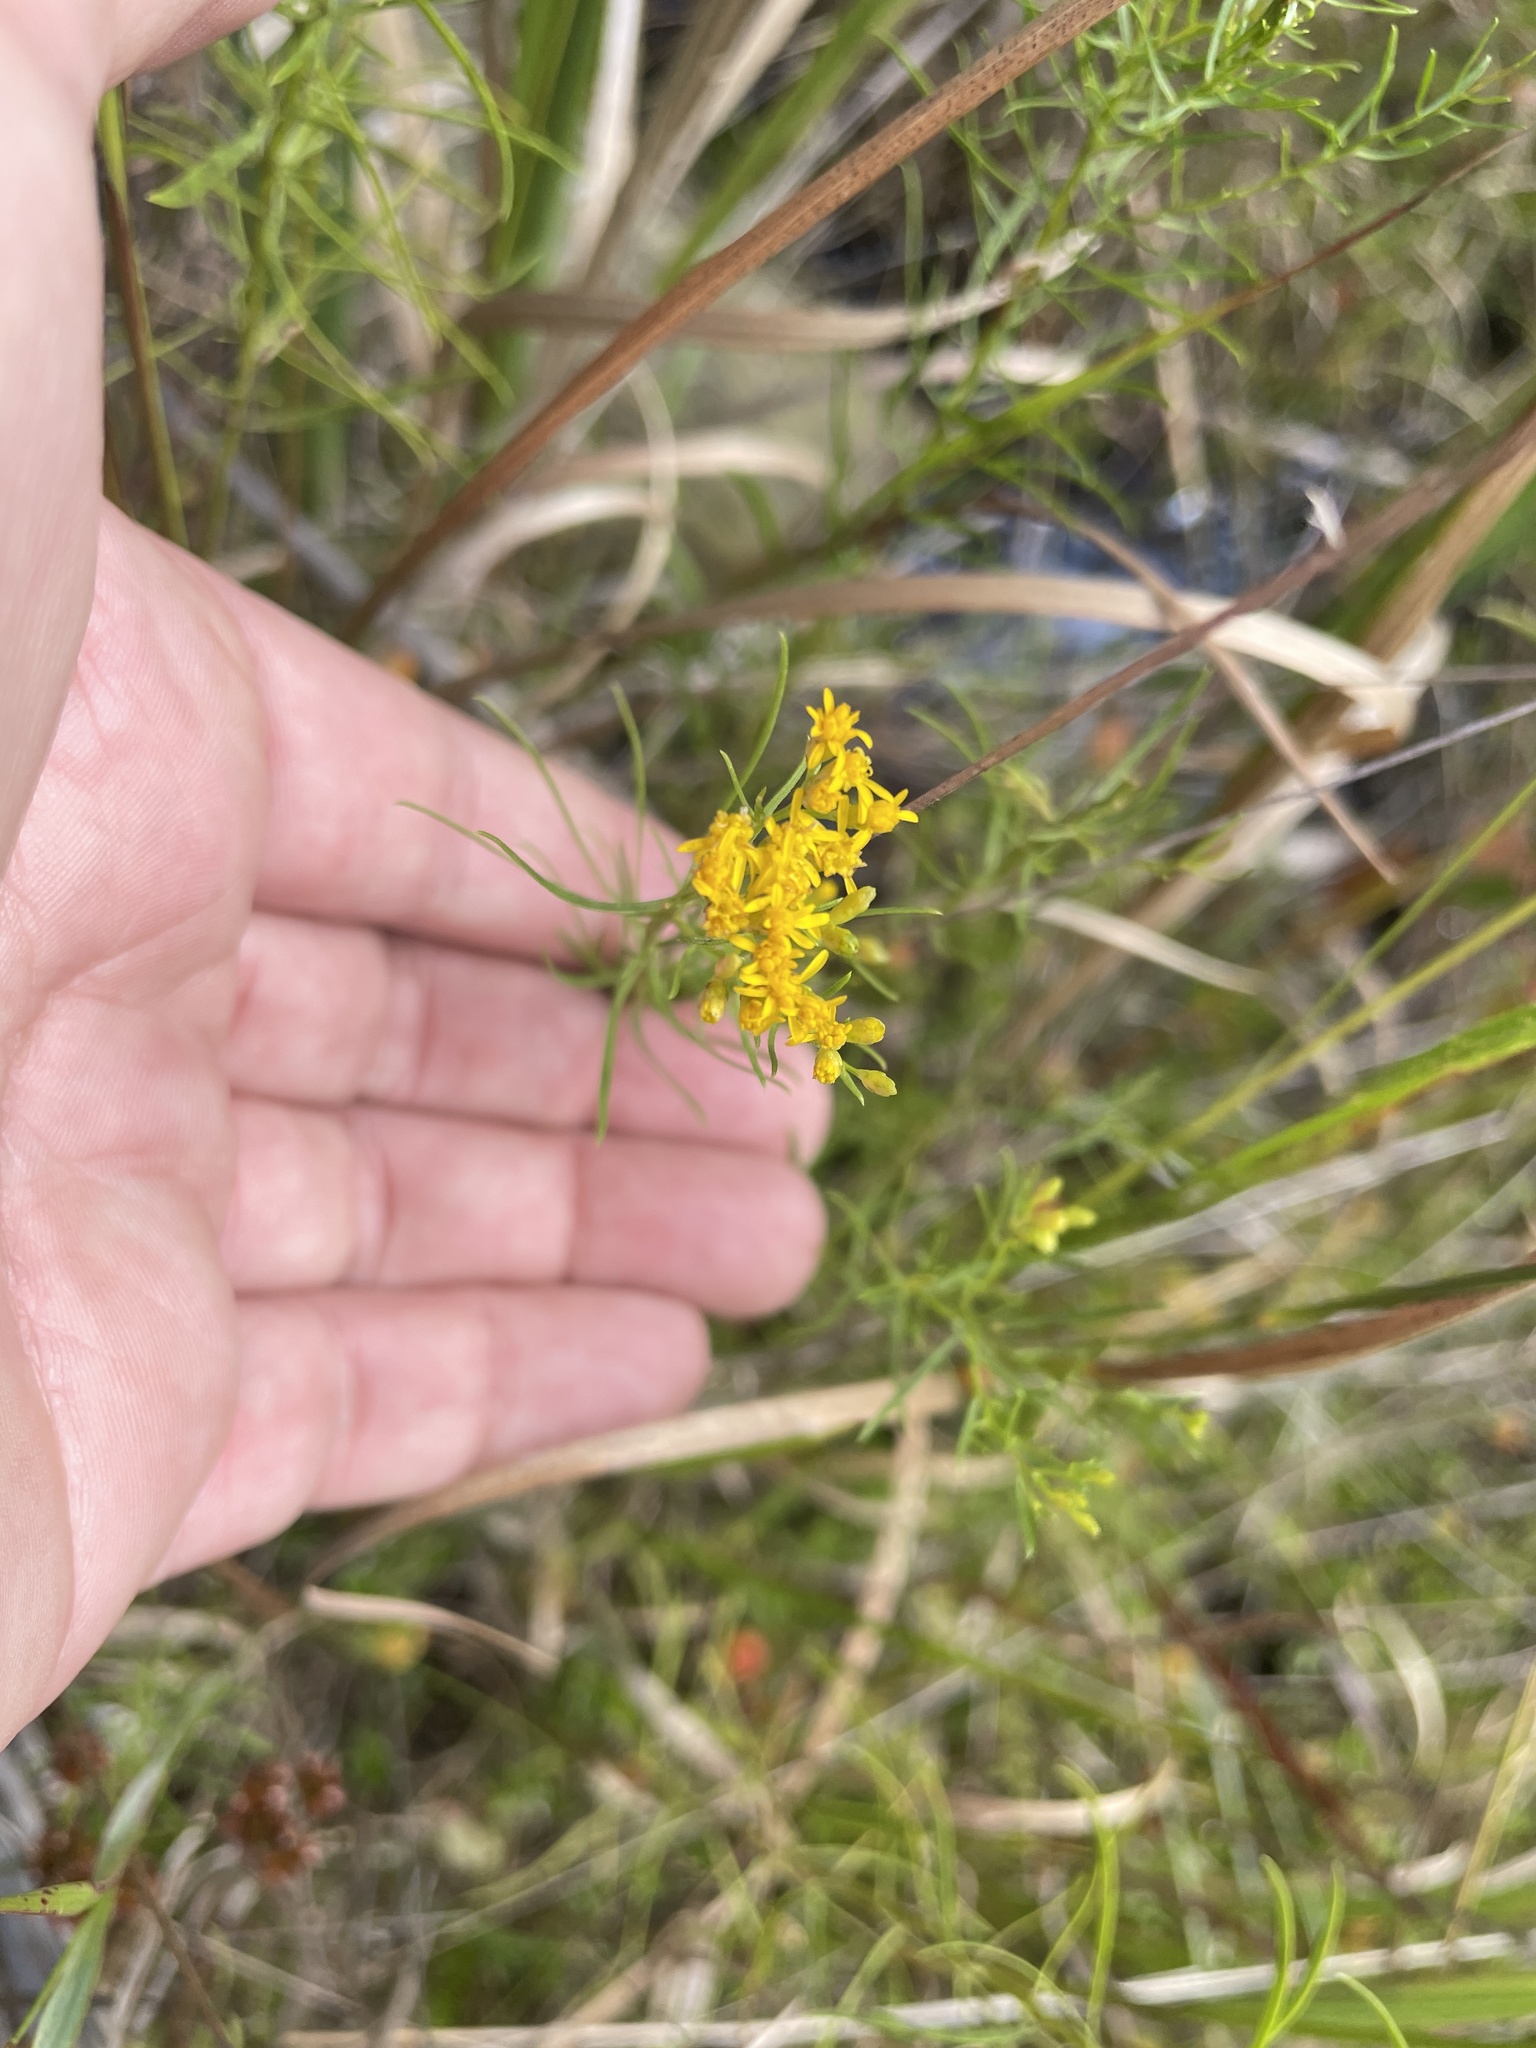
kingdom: Plantae
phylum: Tracheophyta
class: Magnoliopsida
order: Asterales
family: Asteraceae
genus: Euthamia
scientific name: Euthamia caroliniana
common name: Coastal plain goldentop
